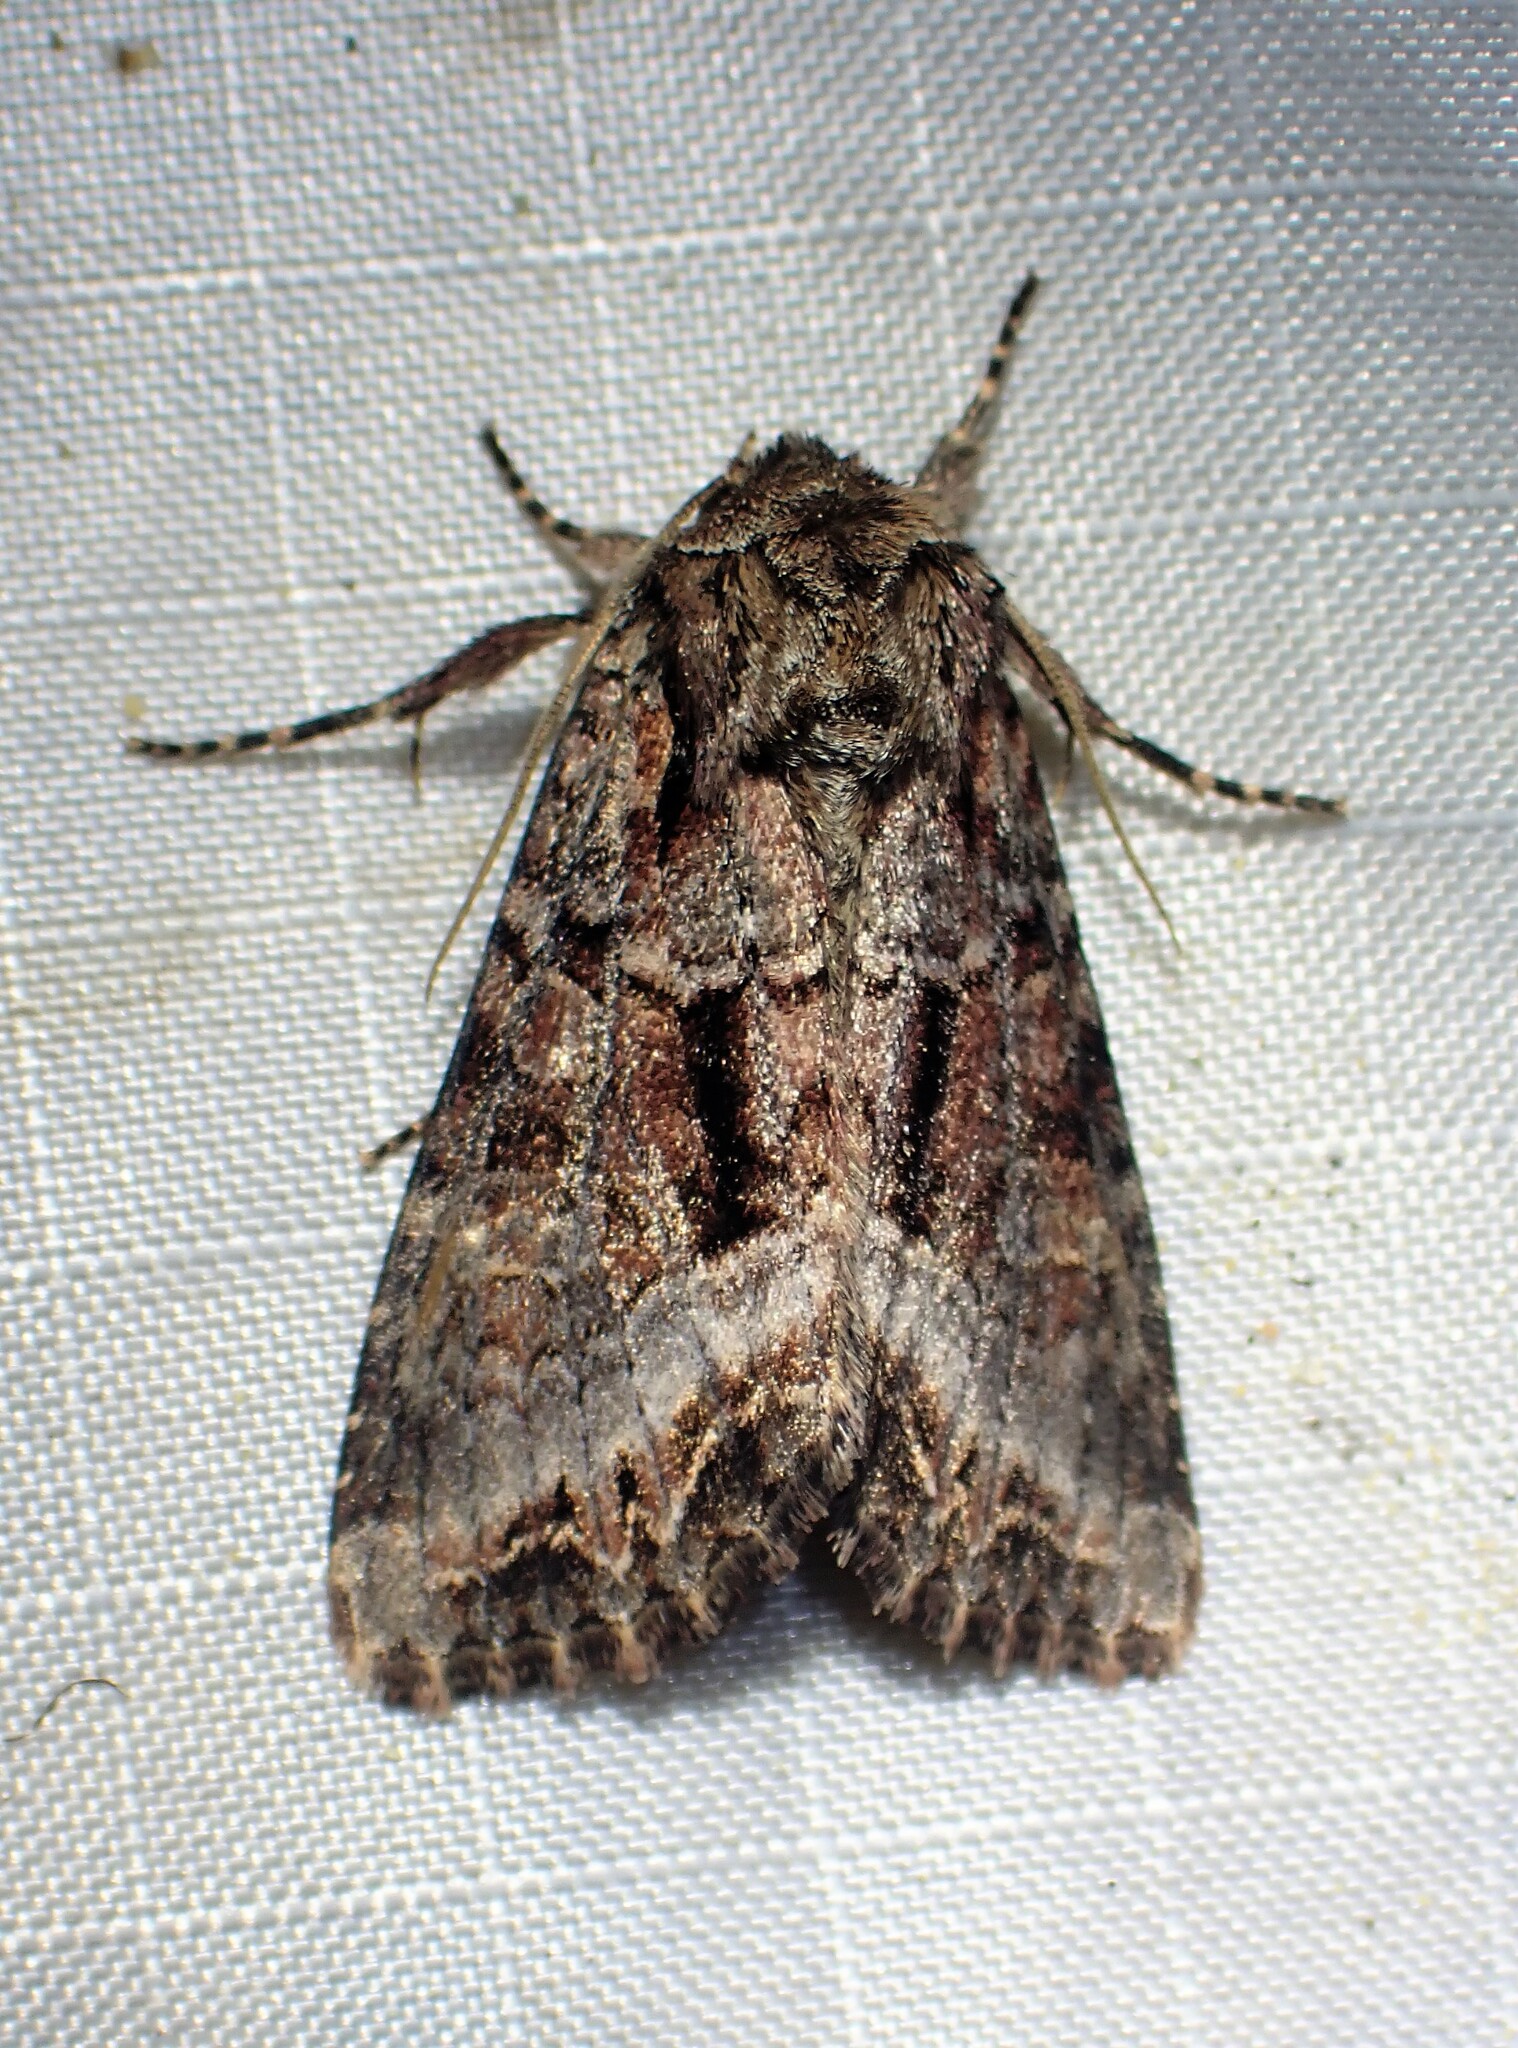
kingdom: Animalia
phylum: Arthropoda
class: Insecta
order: Lepidoptera
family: Noctuidae
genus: Lacanobia
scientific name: Lacanobia grandis
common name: Grand arches moth
